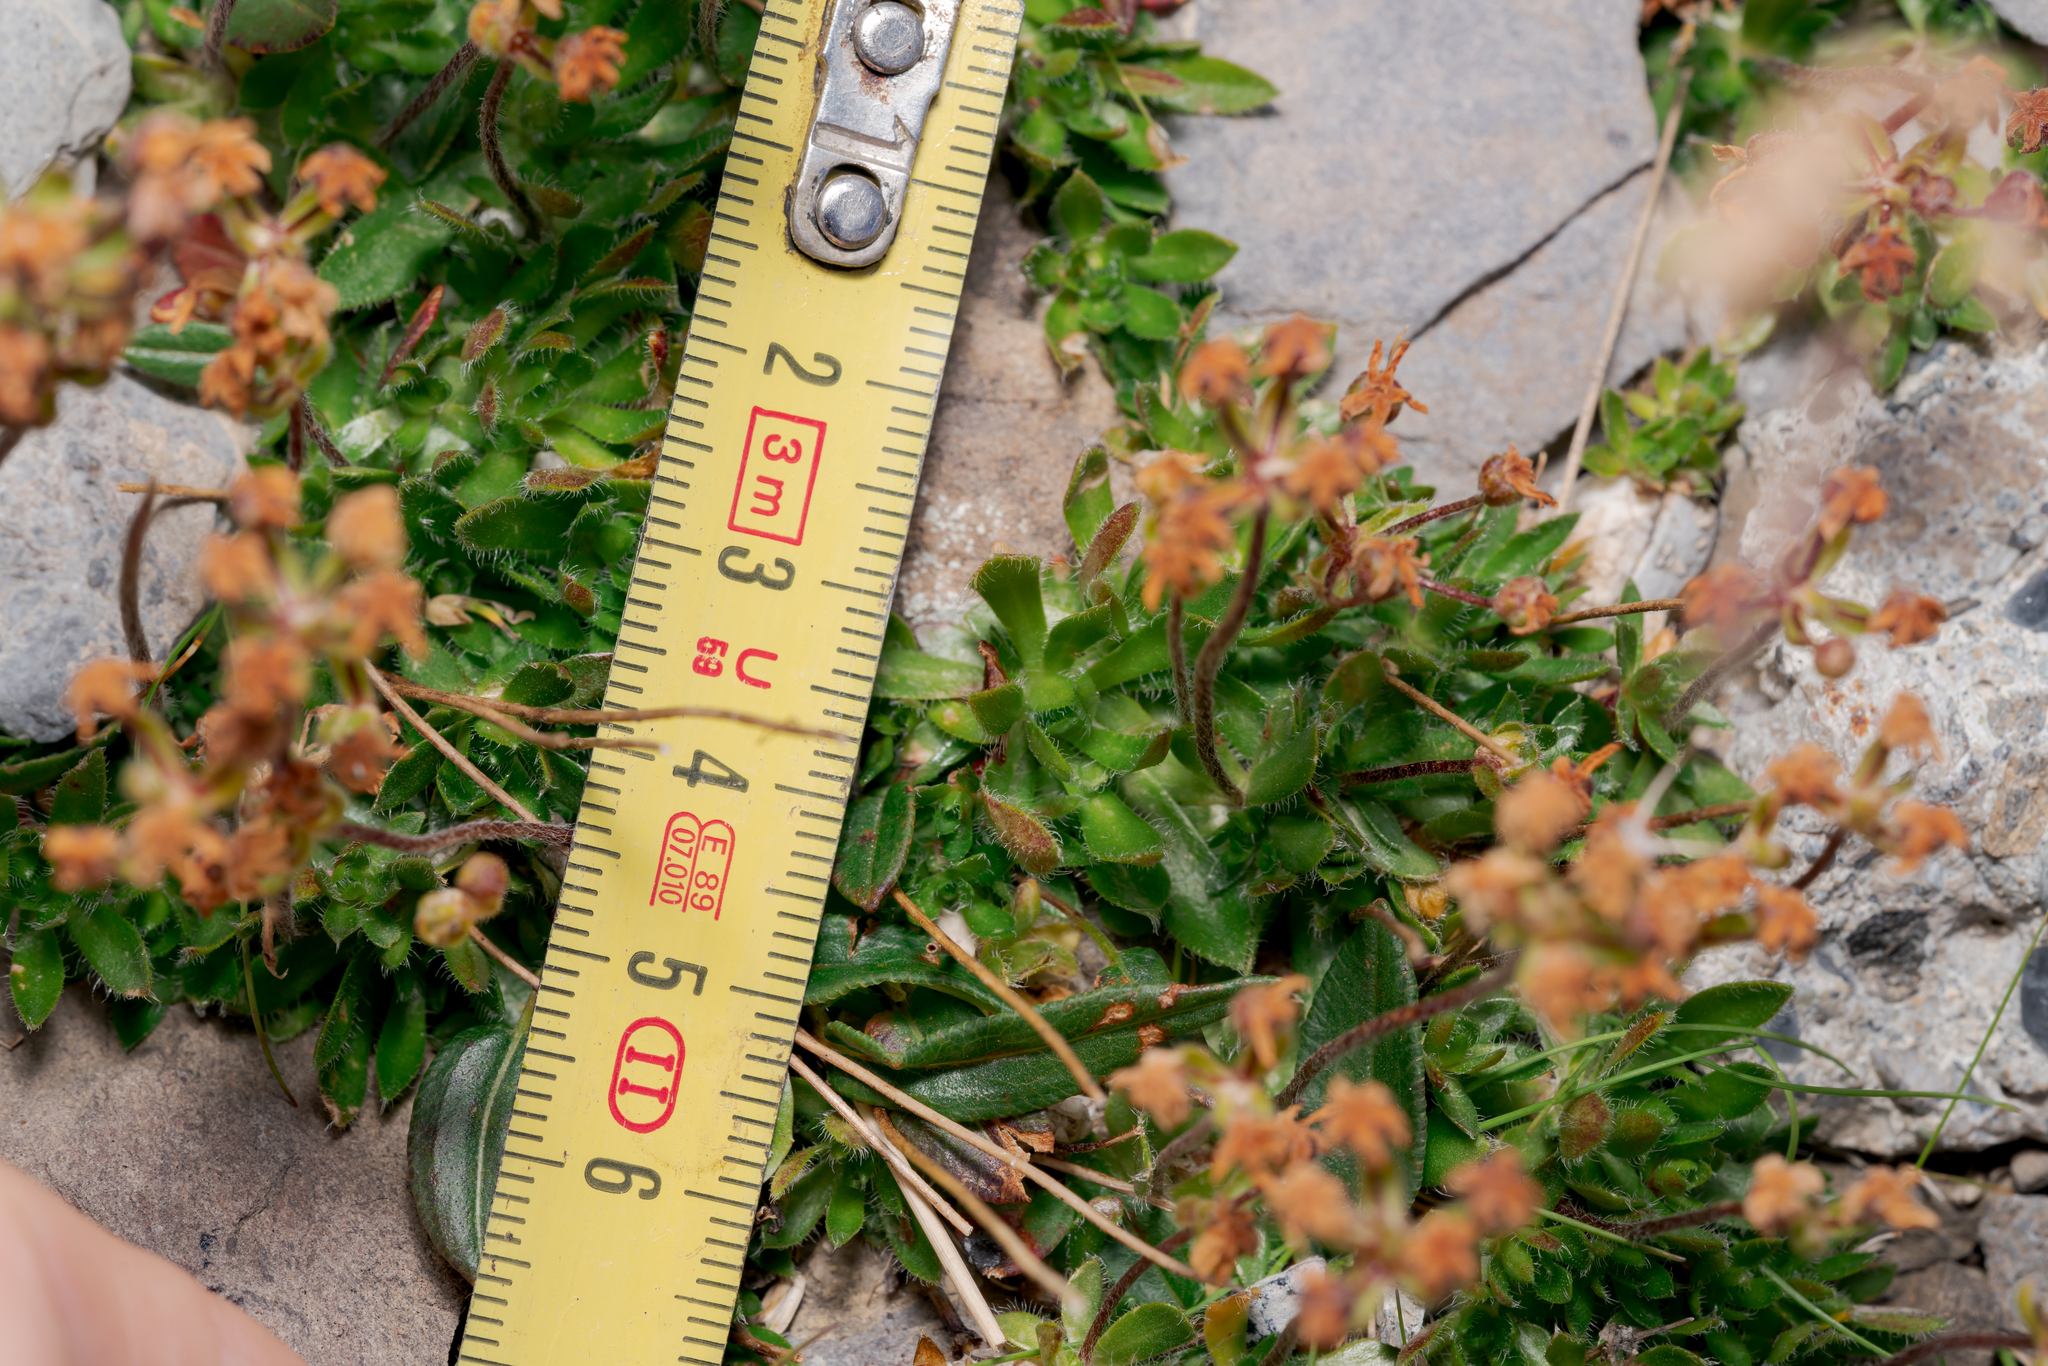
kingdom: Plantae
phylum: Tracheophyta
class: Magnoliopsida
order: Ericales
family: Primulaceae
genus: Androsace
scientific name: Androsace chamaejasme
